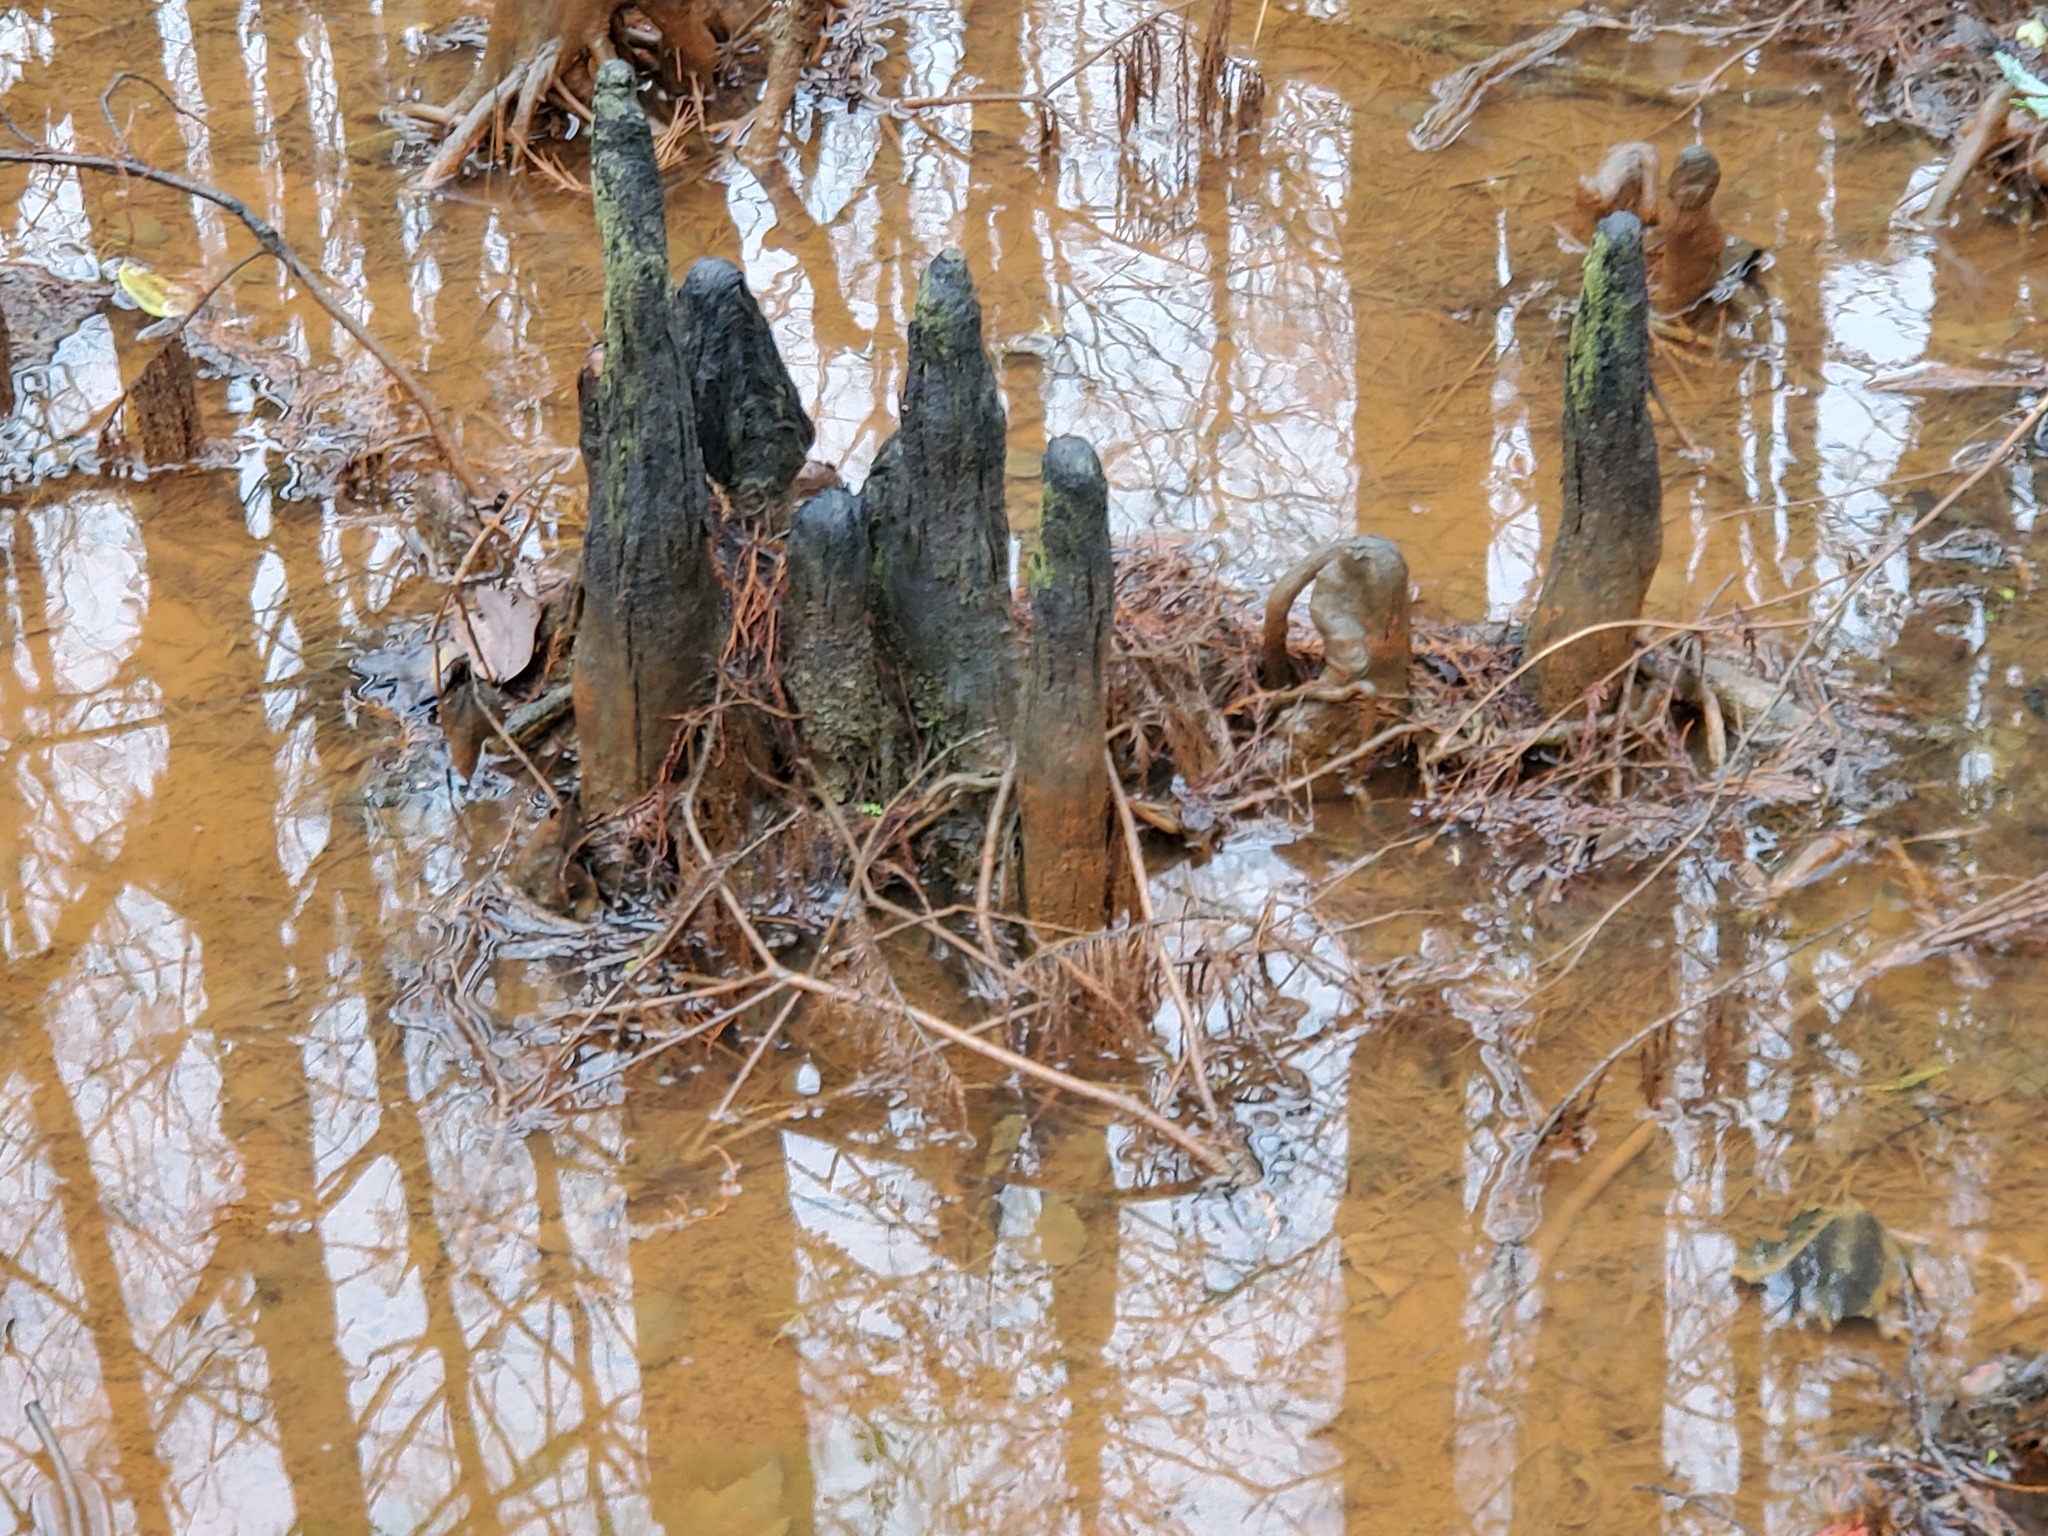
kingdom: Plantae
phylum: Tracheophyta
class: Pinopsida
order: Pinales
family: Cupressaceae
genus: Taxodium
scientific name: Taxodium distichum
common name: Bald cypress
